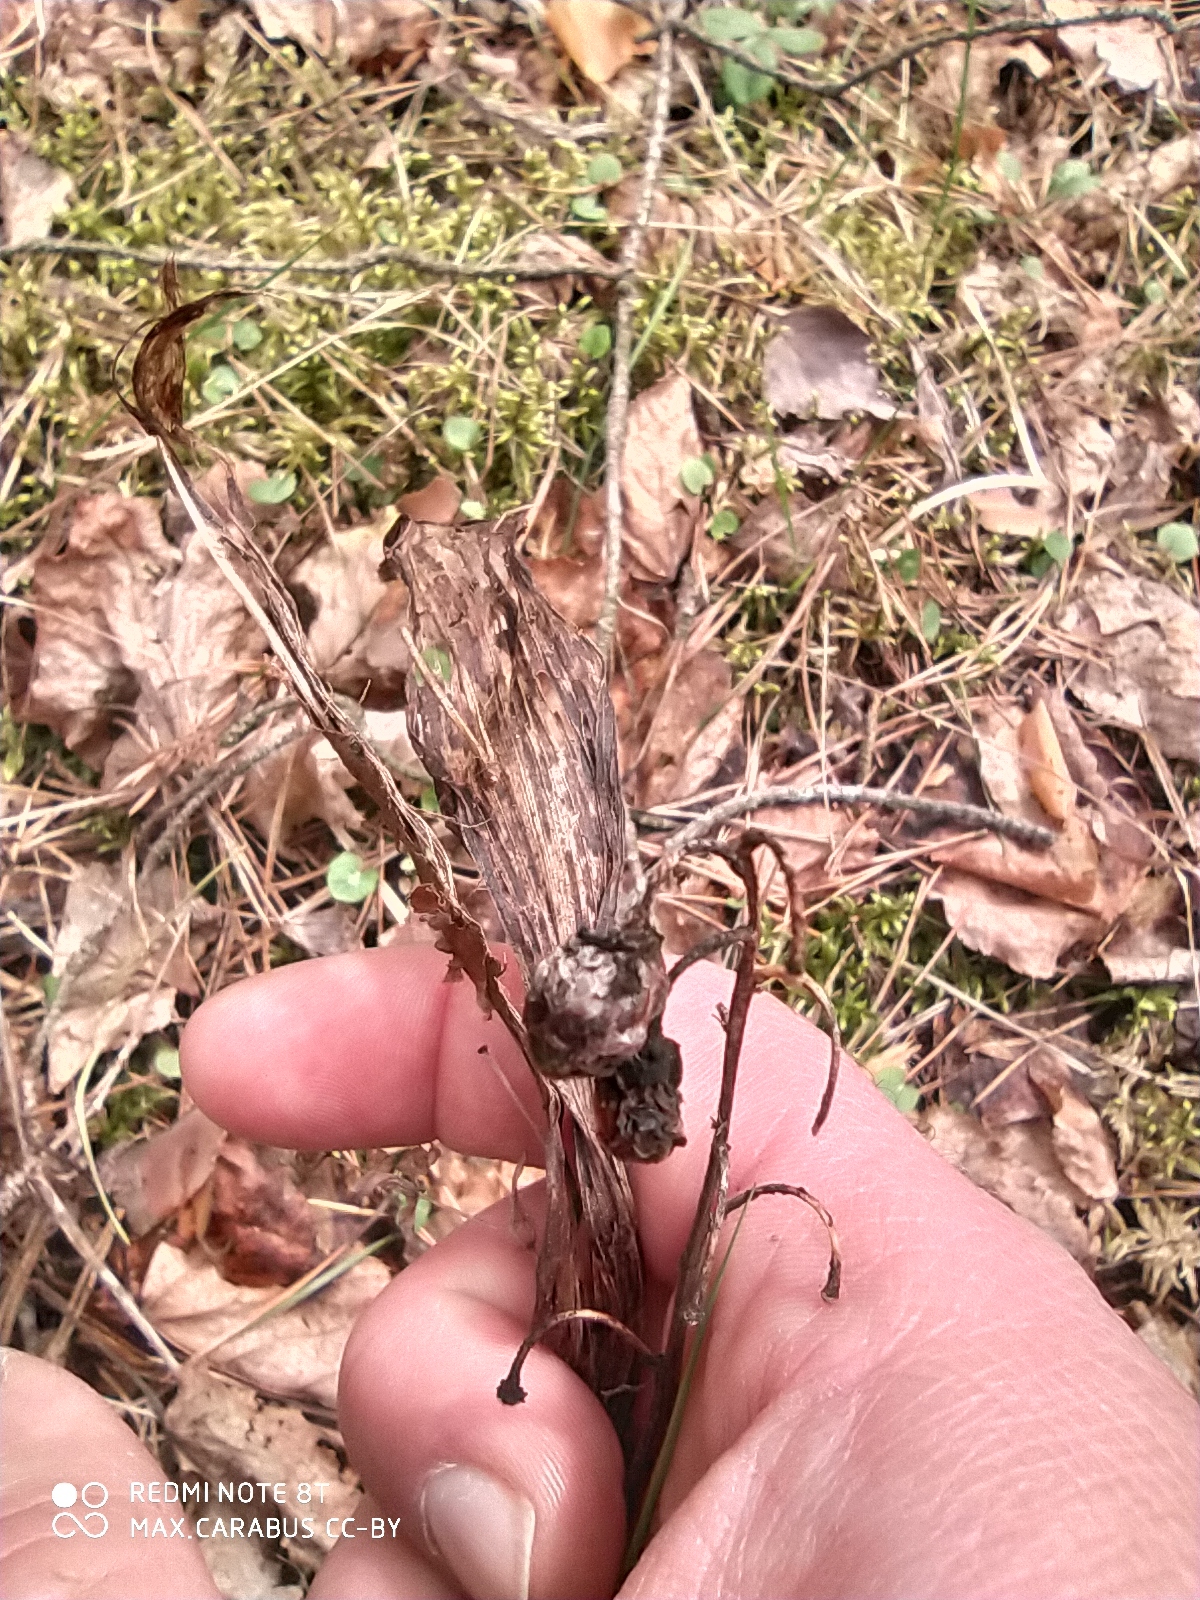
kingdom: Plantae
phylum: Tracheophyta
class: Liliopsida
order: Asparagales
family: Asparagaceae
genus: Convallaria
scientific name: Convallaria majalis
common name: Lily-of-the-valley
